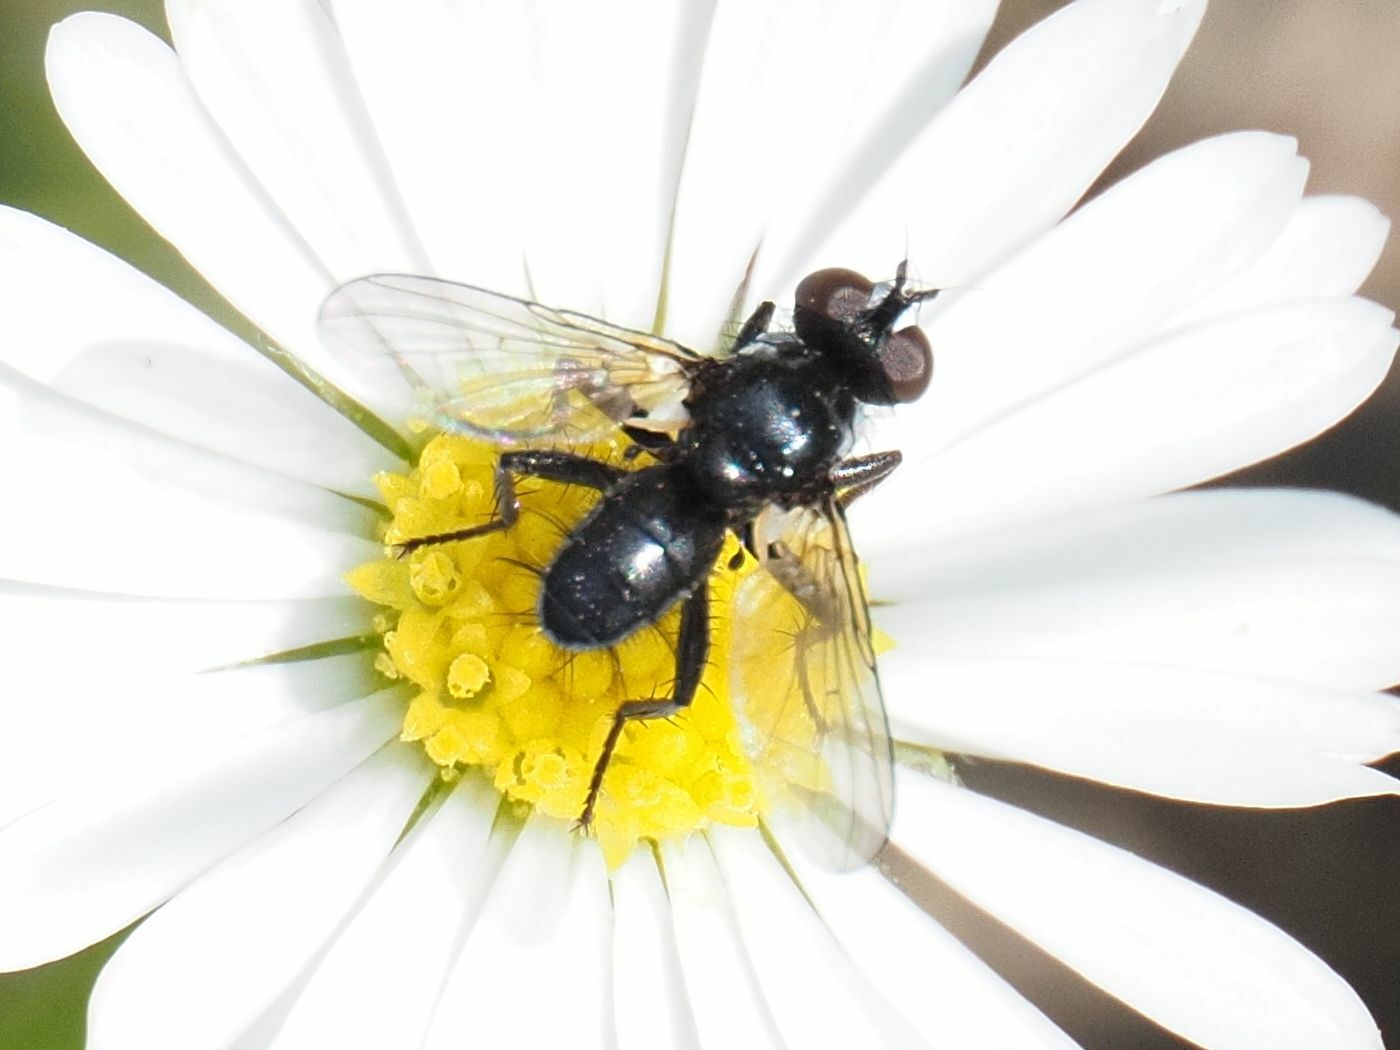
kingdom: Animalia
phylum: Arthropoda
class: Insecta
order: Diptera
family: Tachinidae
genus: Phania
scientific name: Phania funesta
